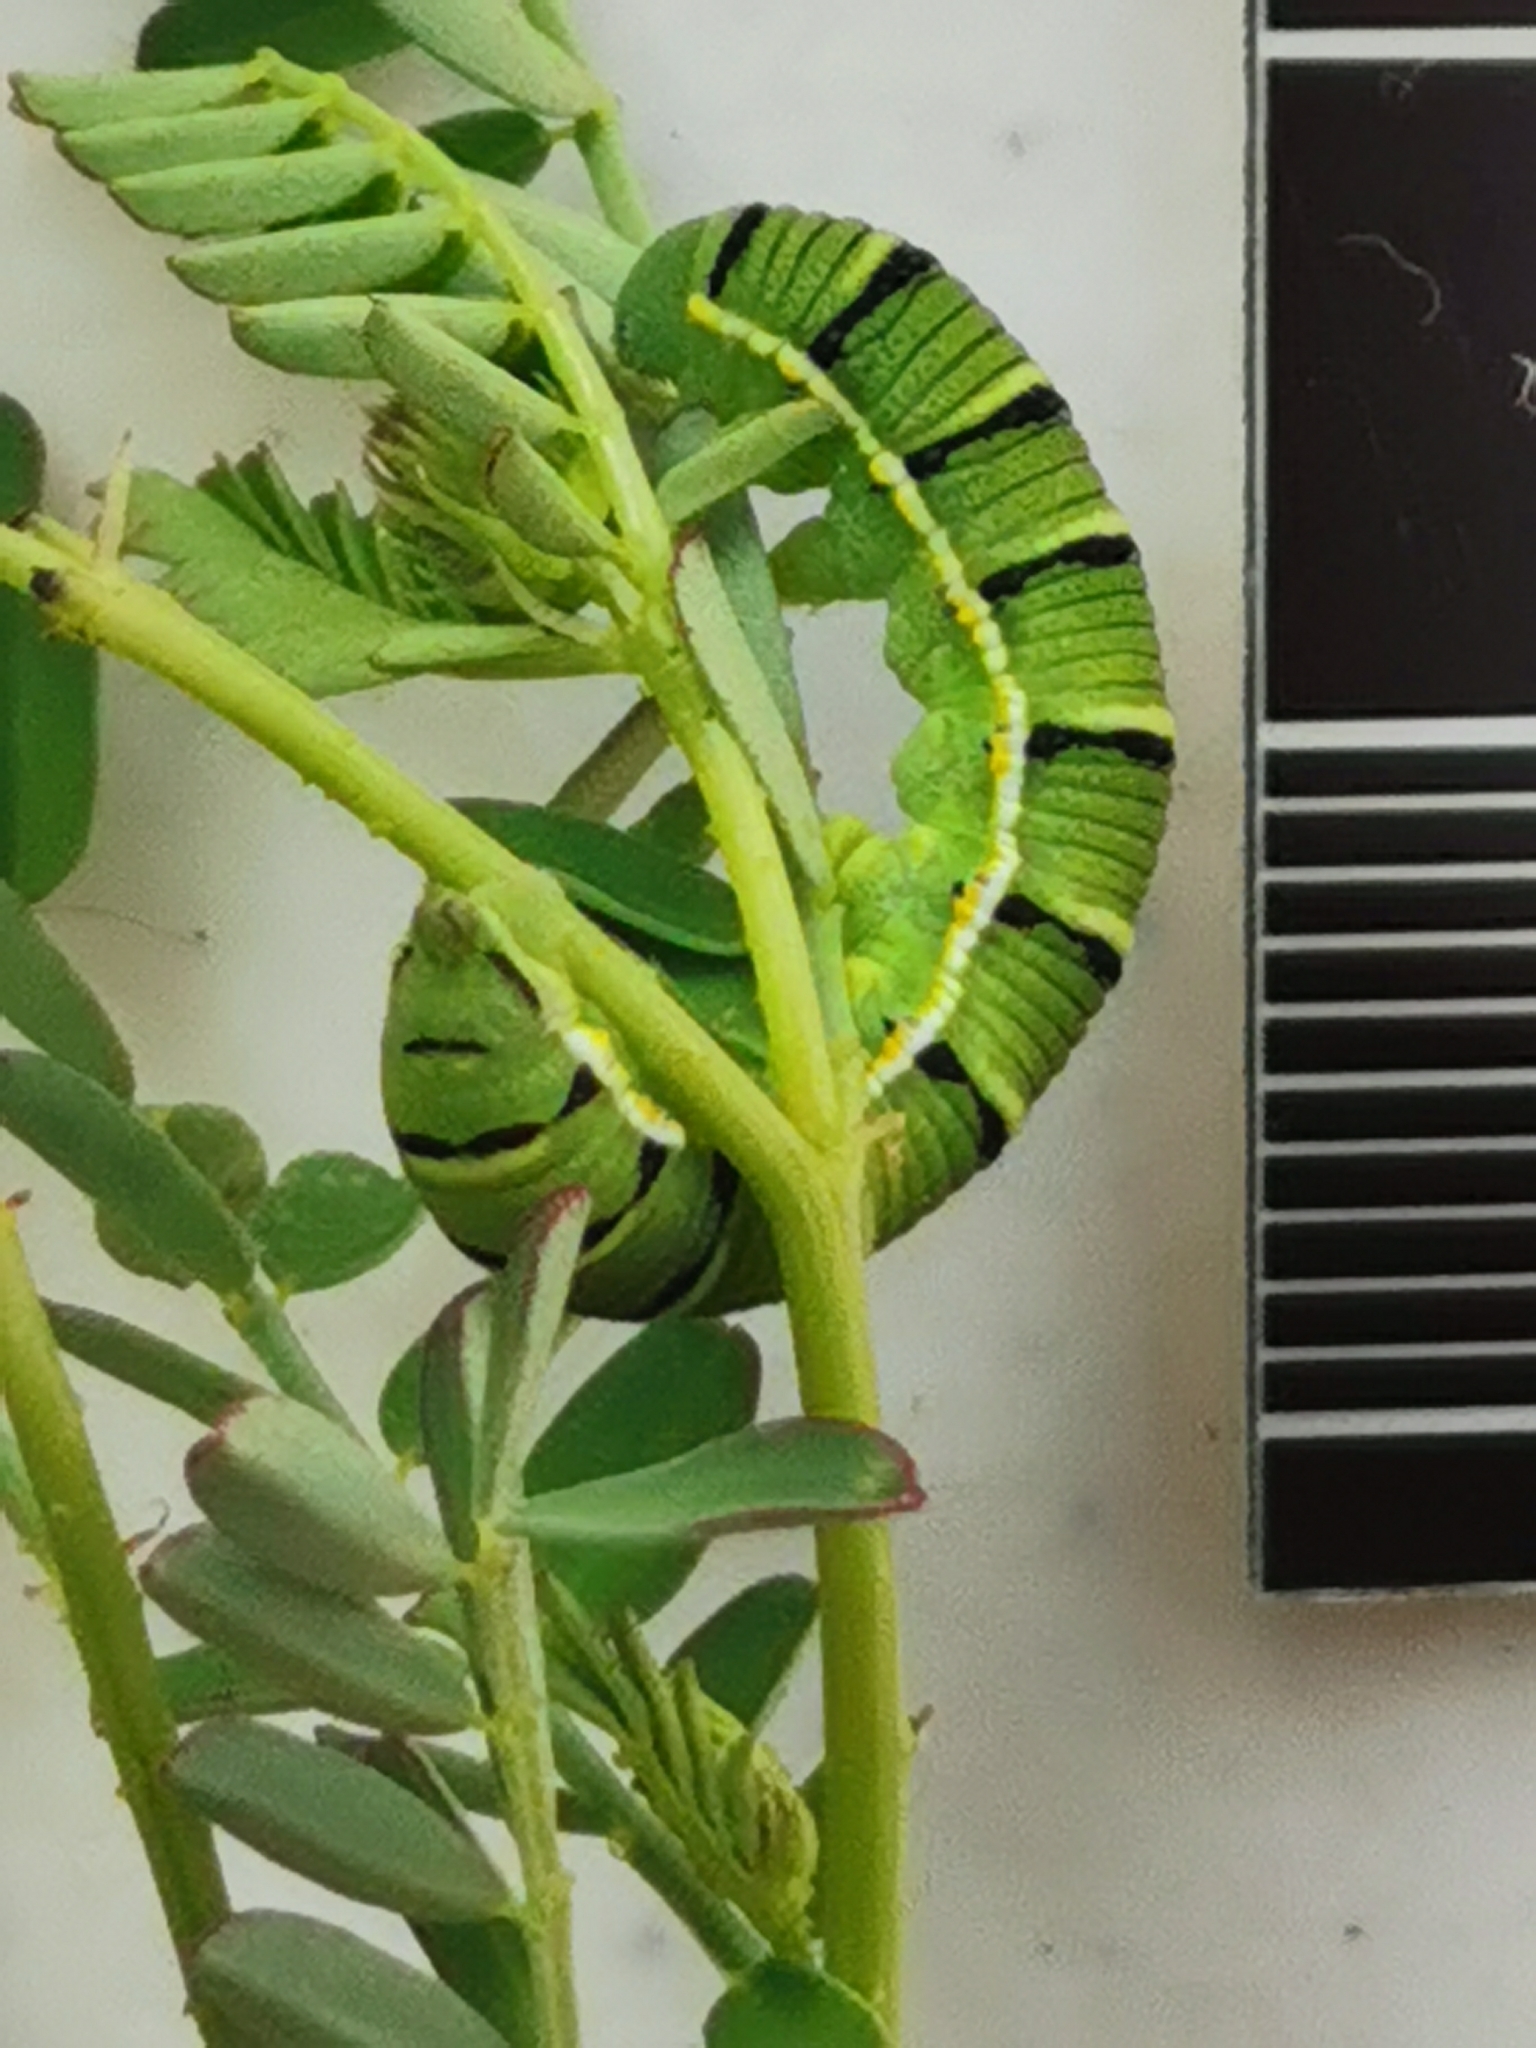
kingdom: Animalia
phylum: Arthropoda
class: Insecta
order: Lepidoptera
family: Pieridae
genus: Zerene
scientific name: Zerene cesonia
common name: Southern dogface
